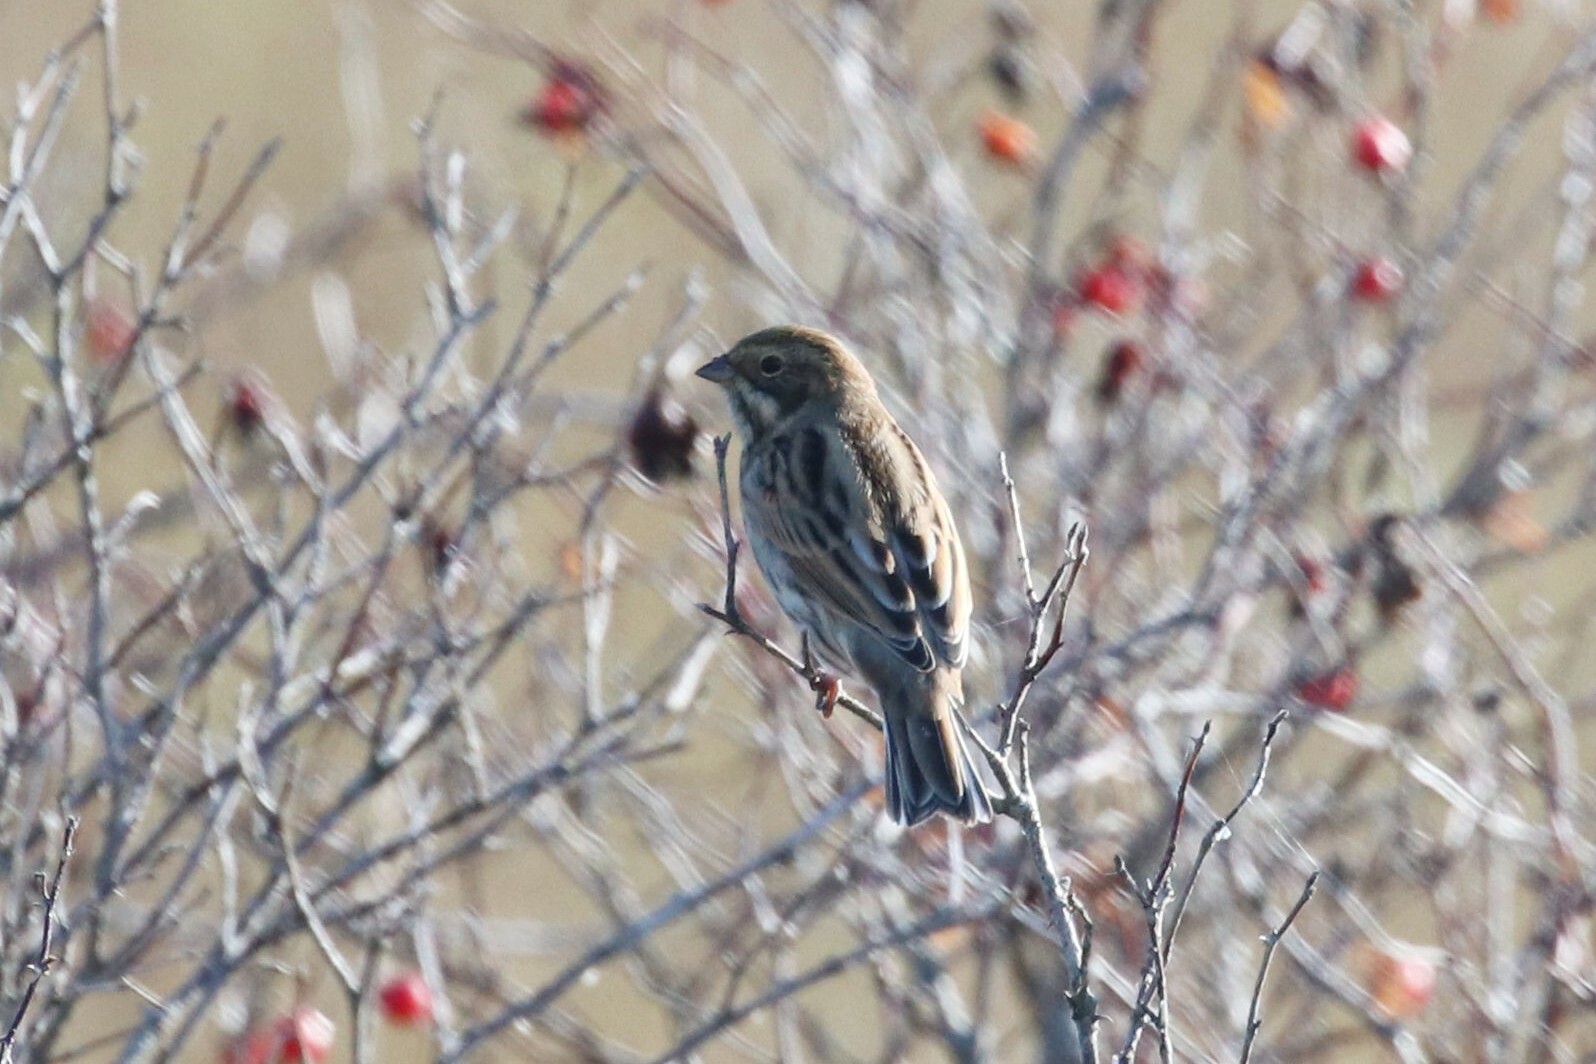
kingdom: Animalia
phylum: Chordata
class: Aves
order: Passeriformes
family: Emberizidae
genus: Emberiza
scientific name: Emberiza schoeniclus
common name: Reed bunting
